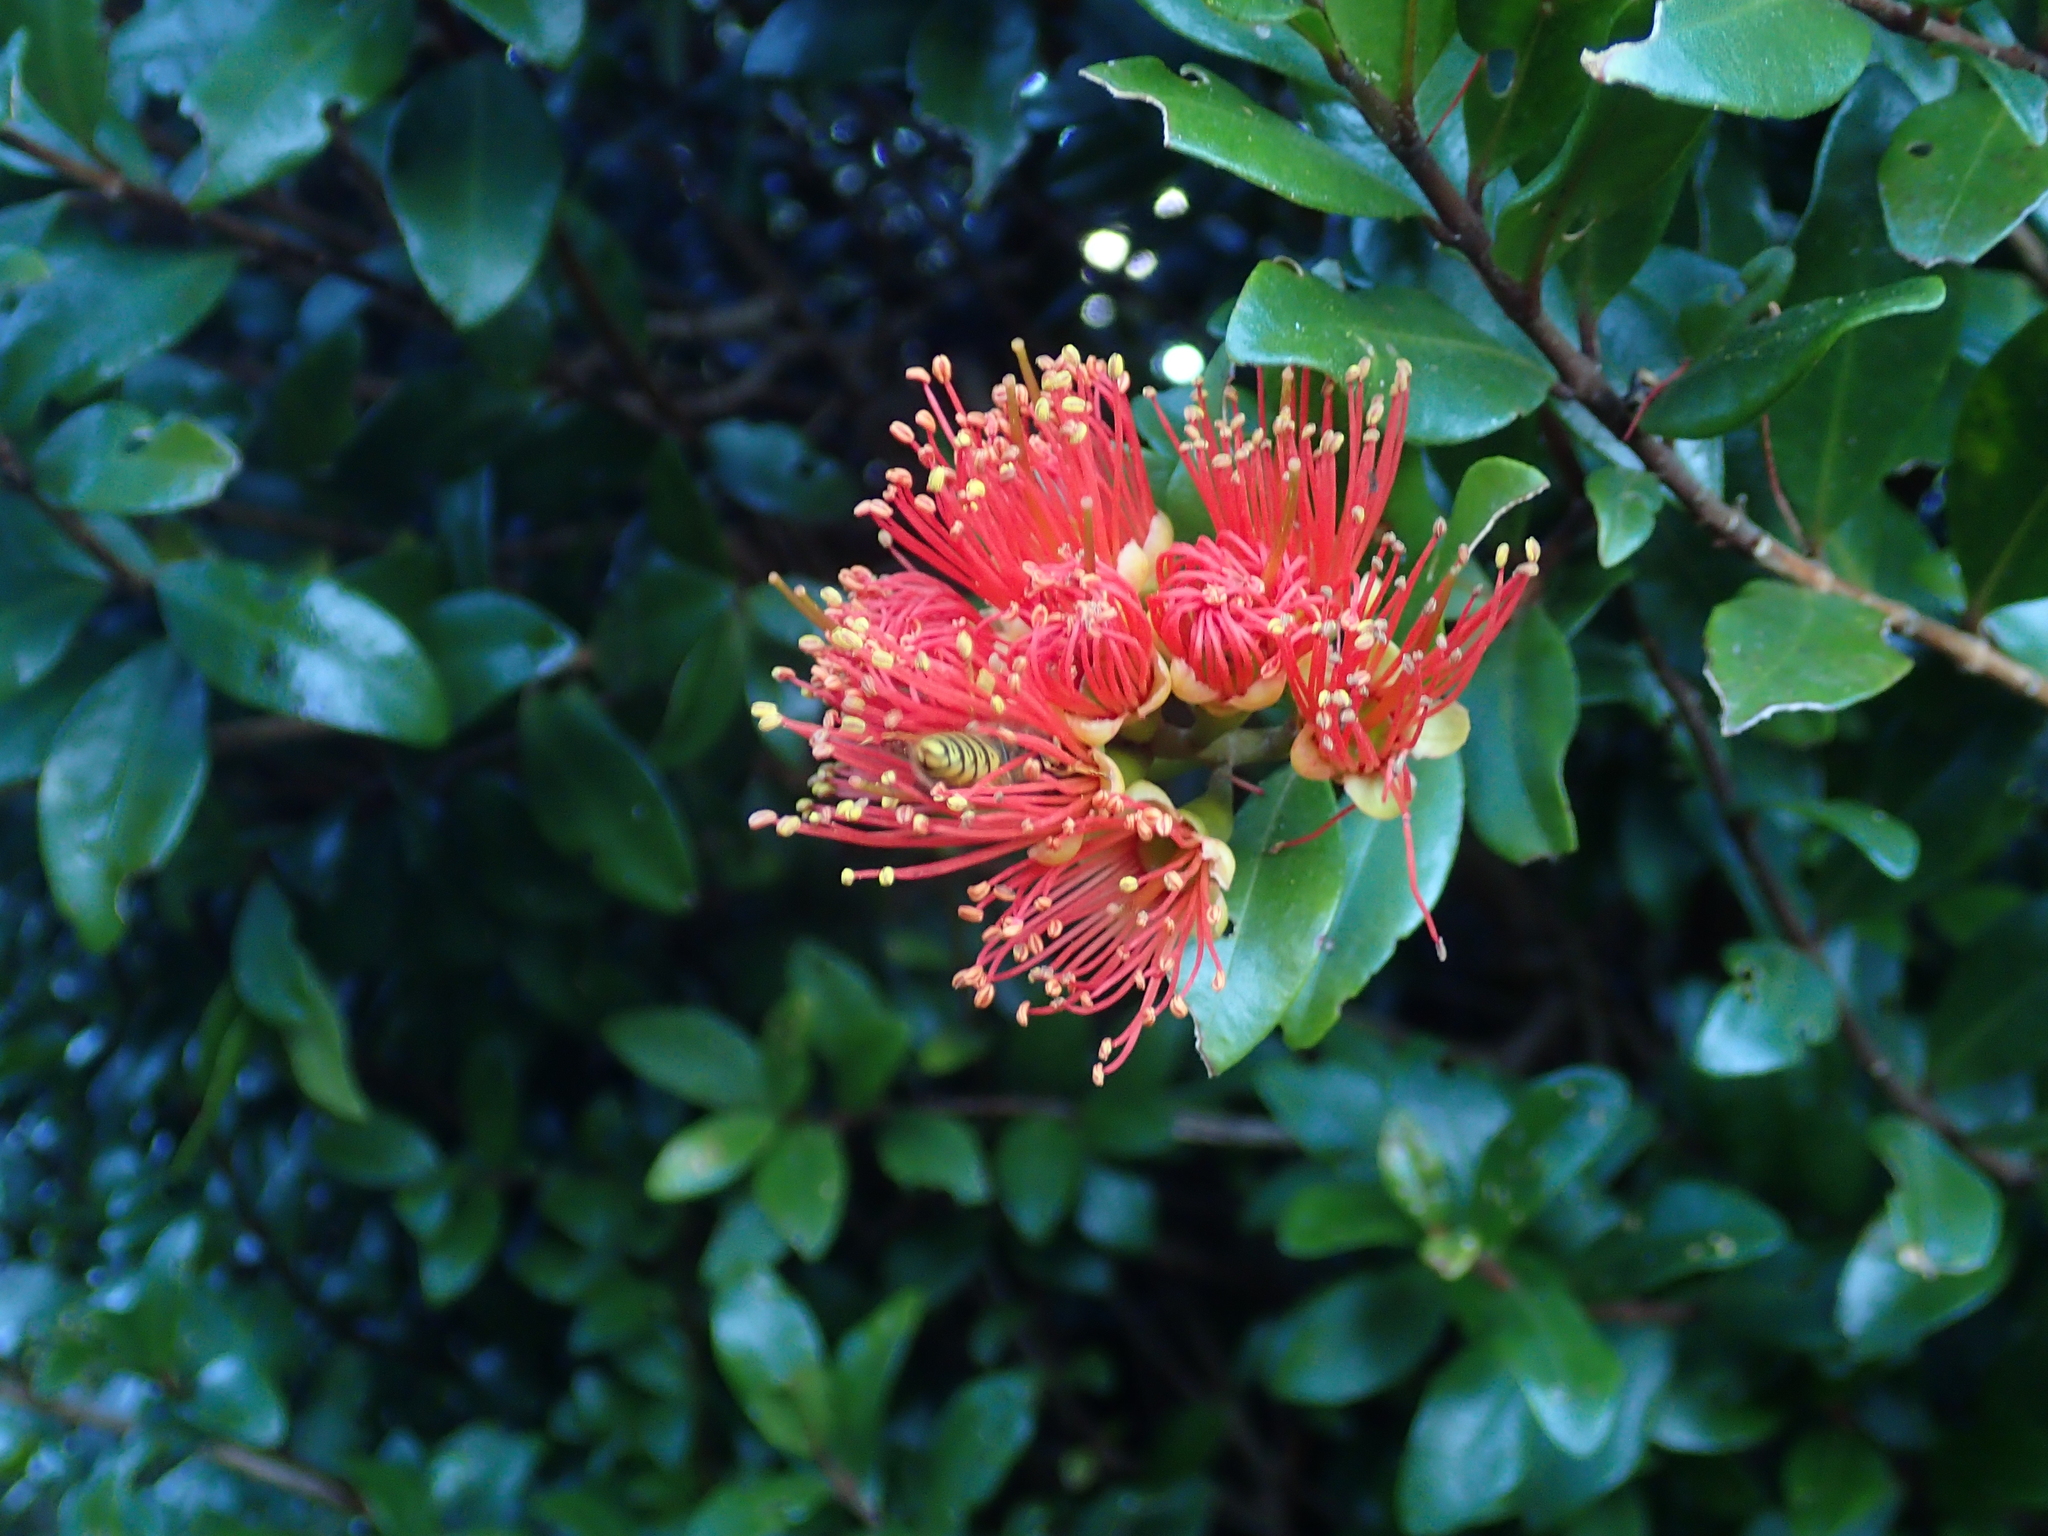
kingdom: Plantae
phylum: Tracheophyta
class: Magnoliopsida
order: Myrtales
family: Myrtaceae
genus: Metrosideros
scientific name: Metrosideros fulgens
